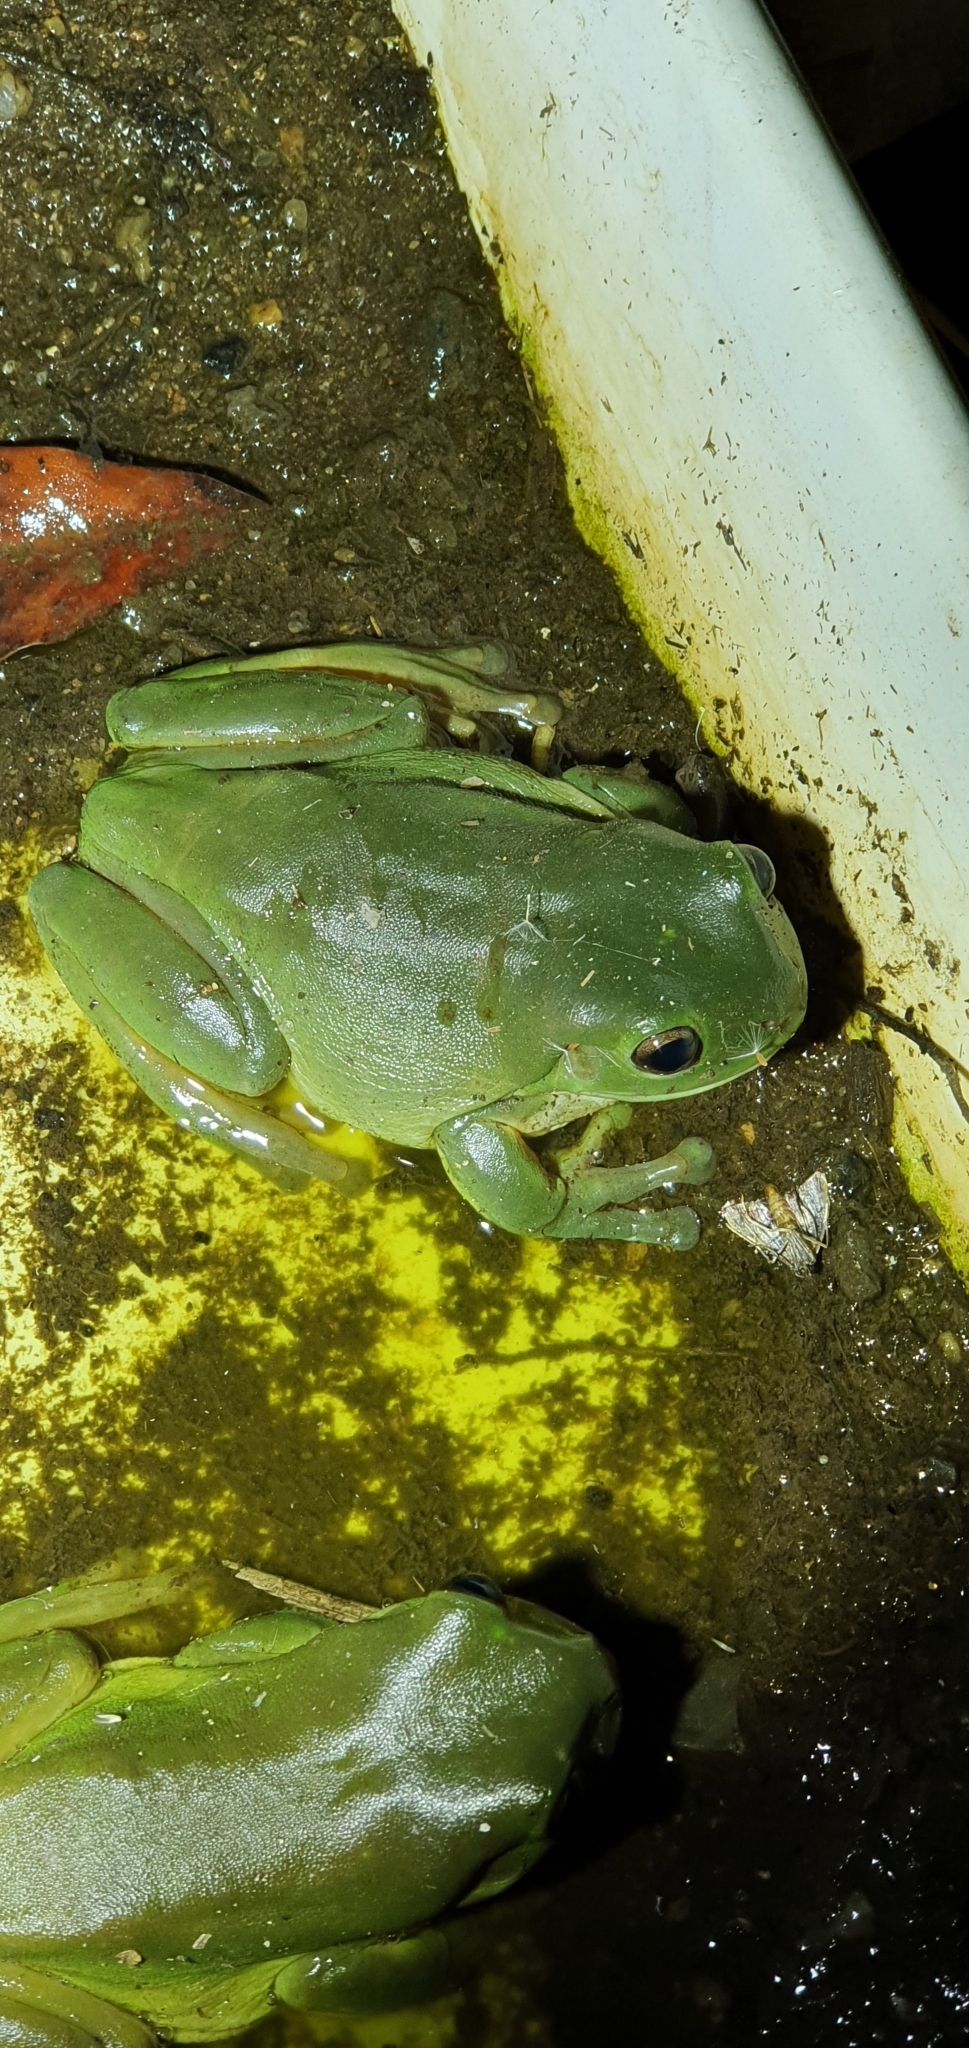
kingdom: Animalia
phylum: Chordata
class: Amphibia
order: Anura
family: Pelodryadidae
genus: Ranoidea
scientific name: Ranoidea caerulea
